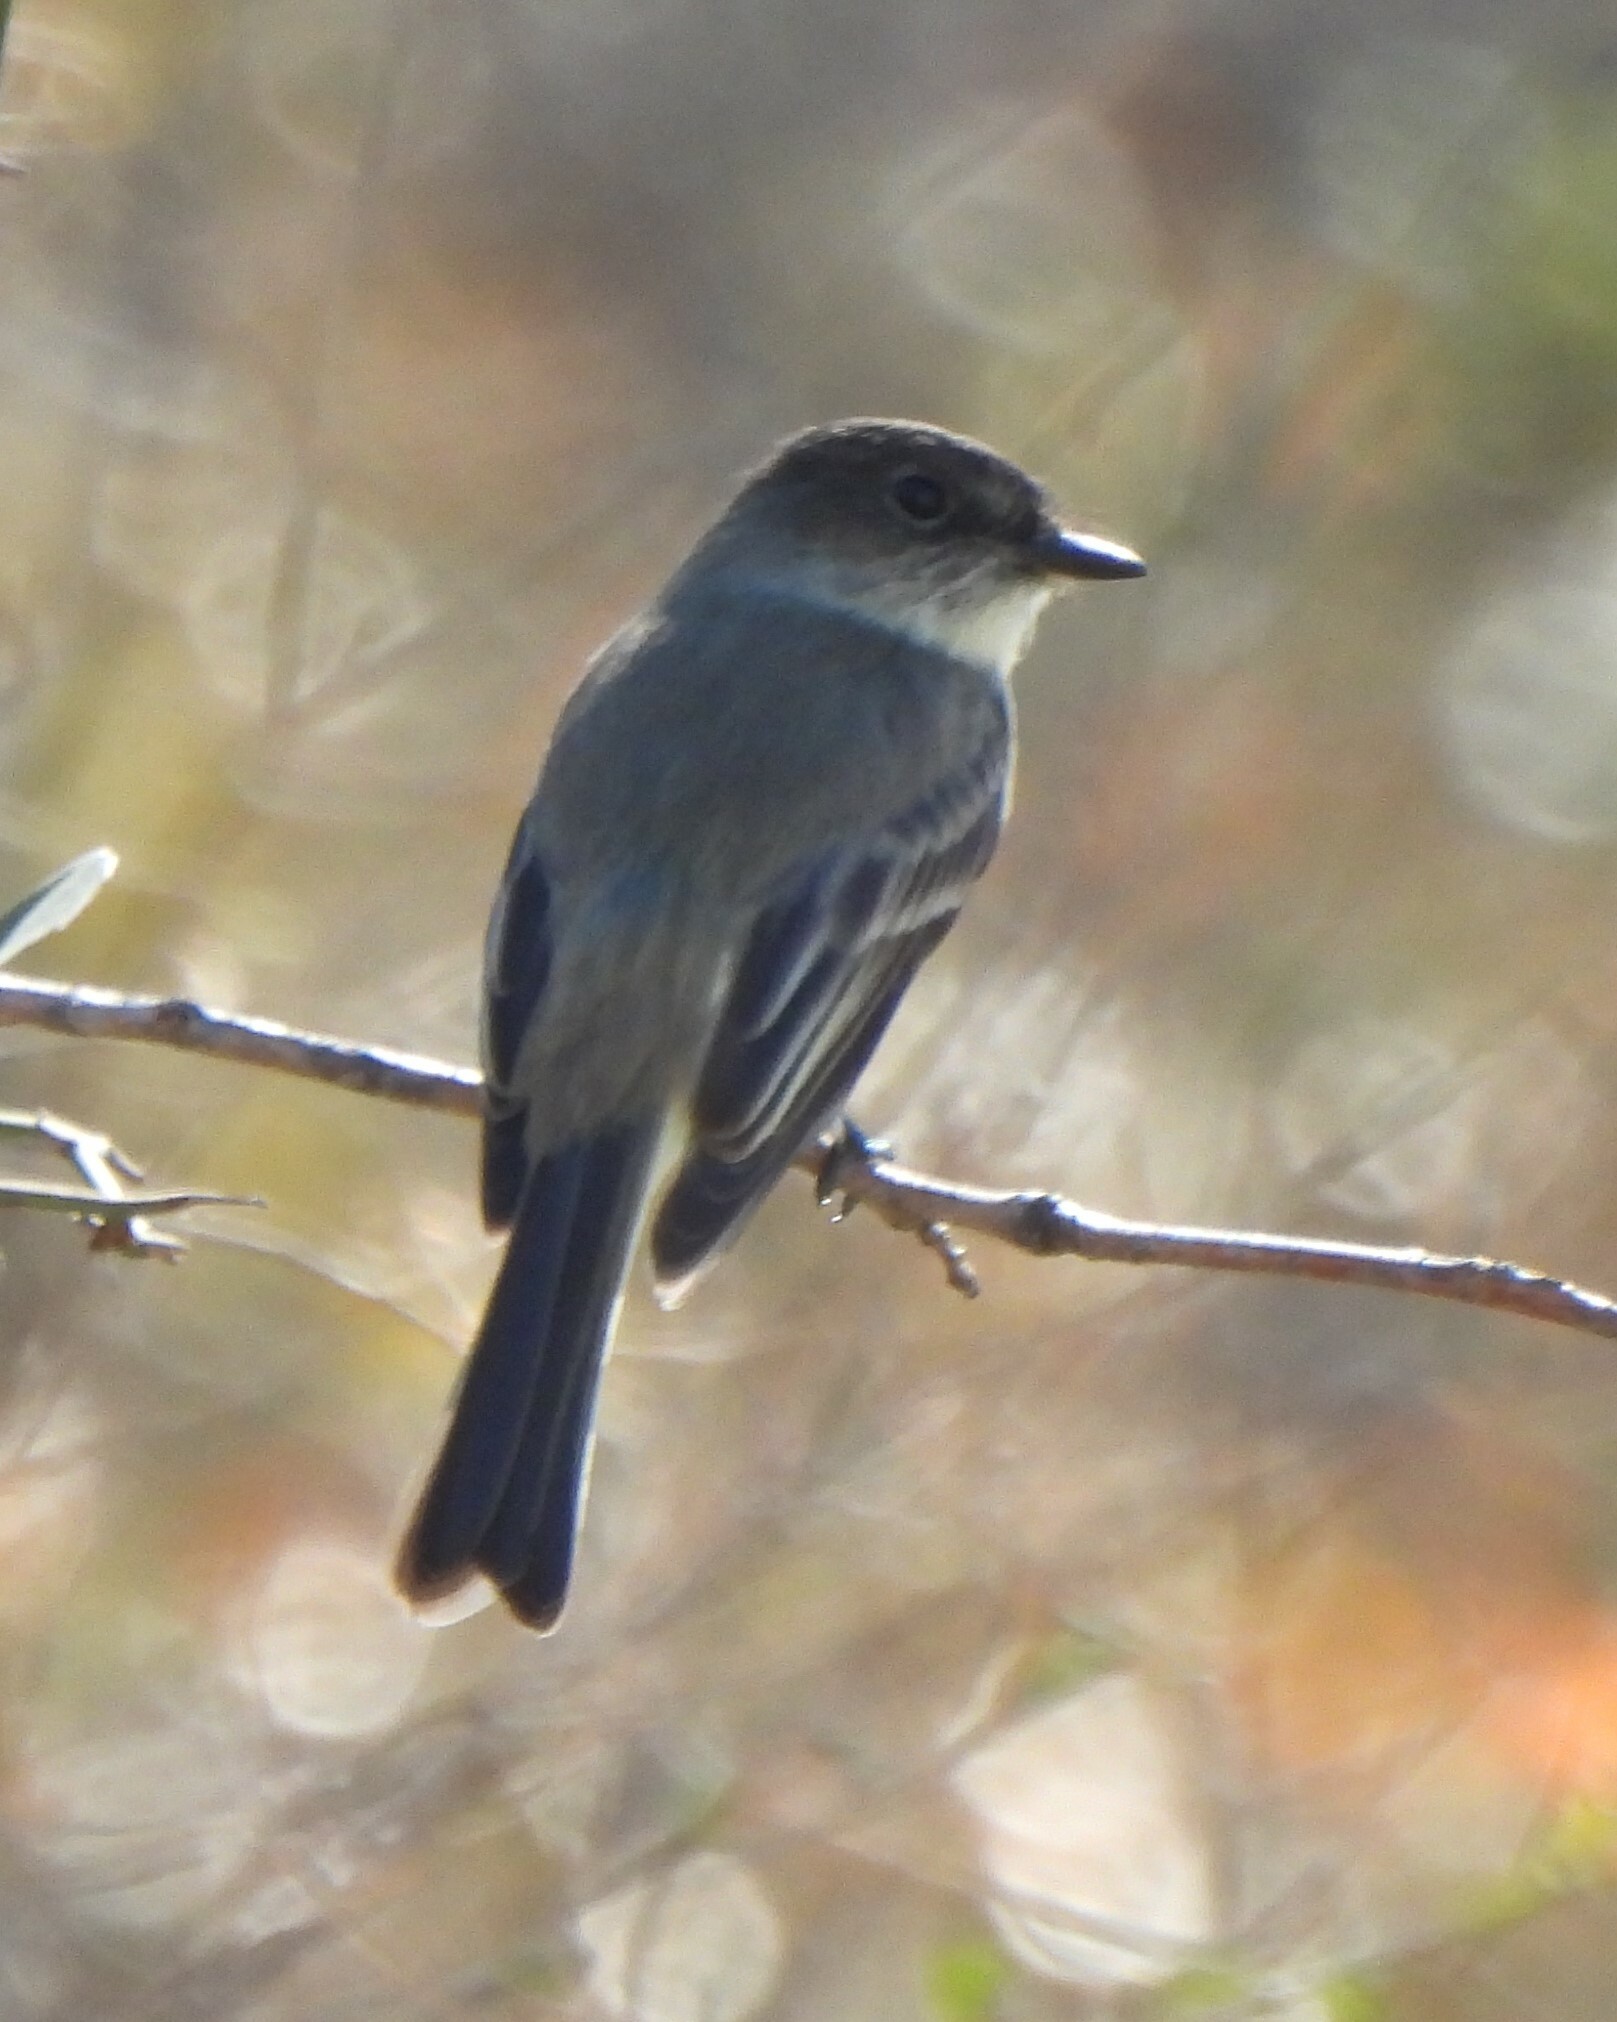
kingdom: Animalia
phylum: Chordata
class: Aves
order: Passeriformes
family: Tyrannidae
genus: Sayornis
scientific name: Sayornis phoebe
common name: Eastern phoebe
